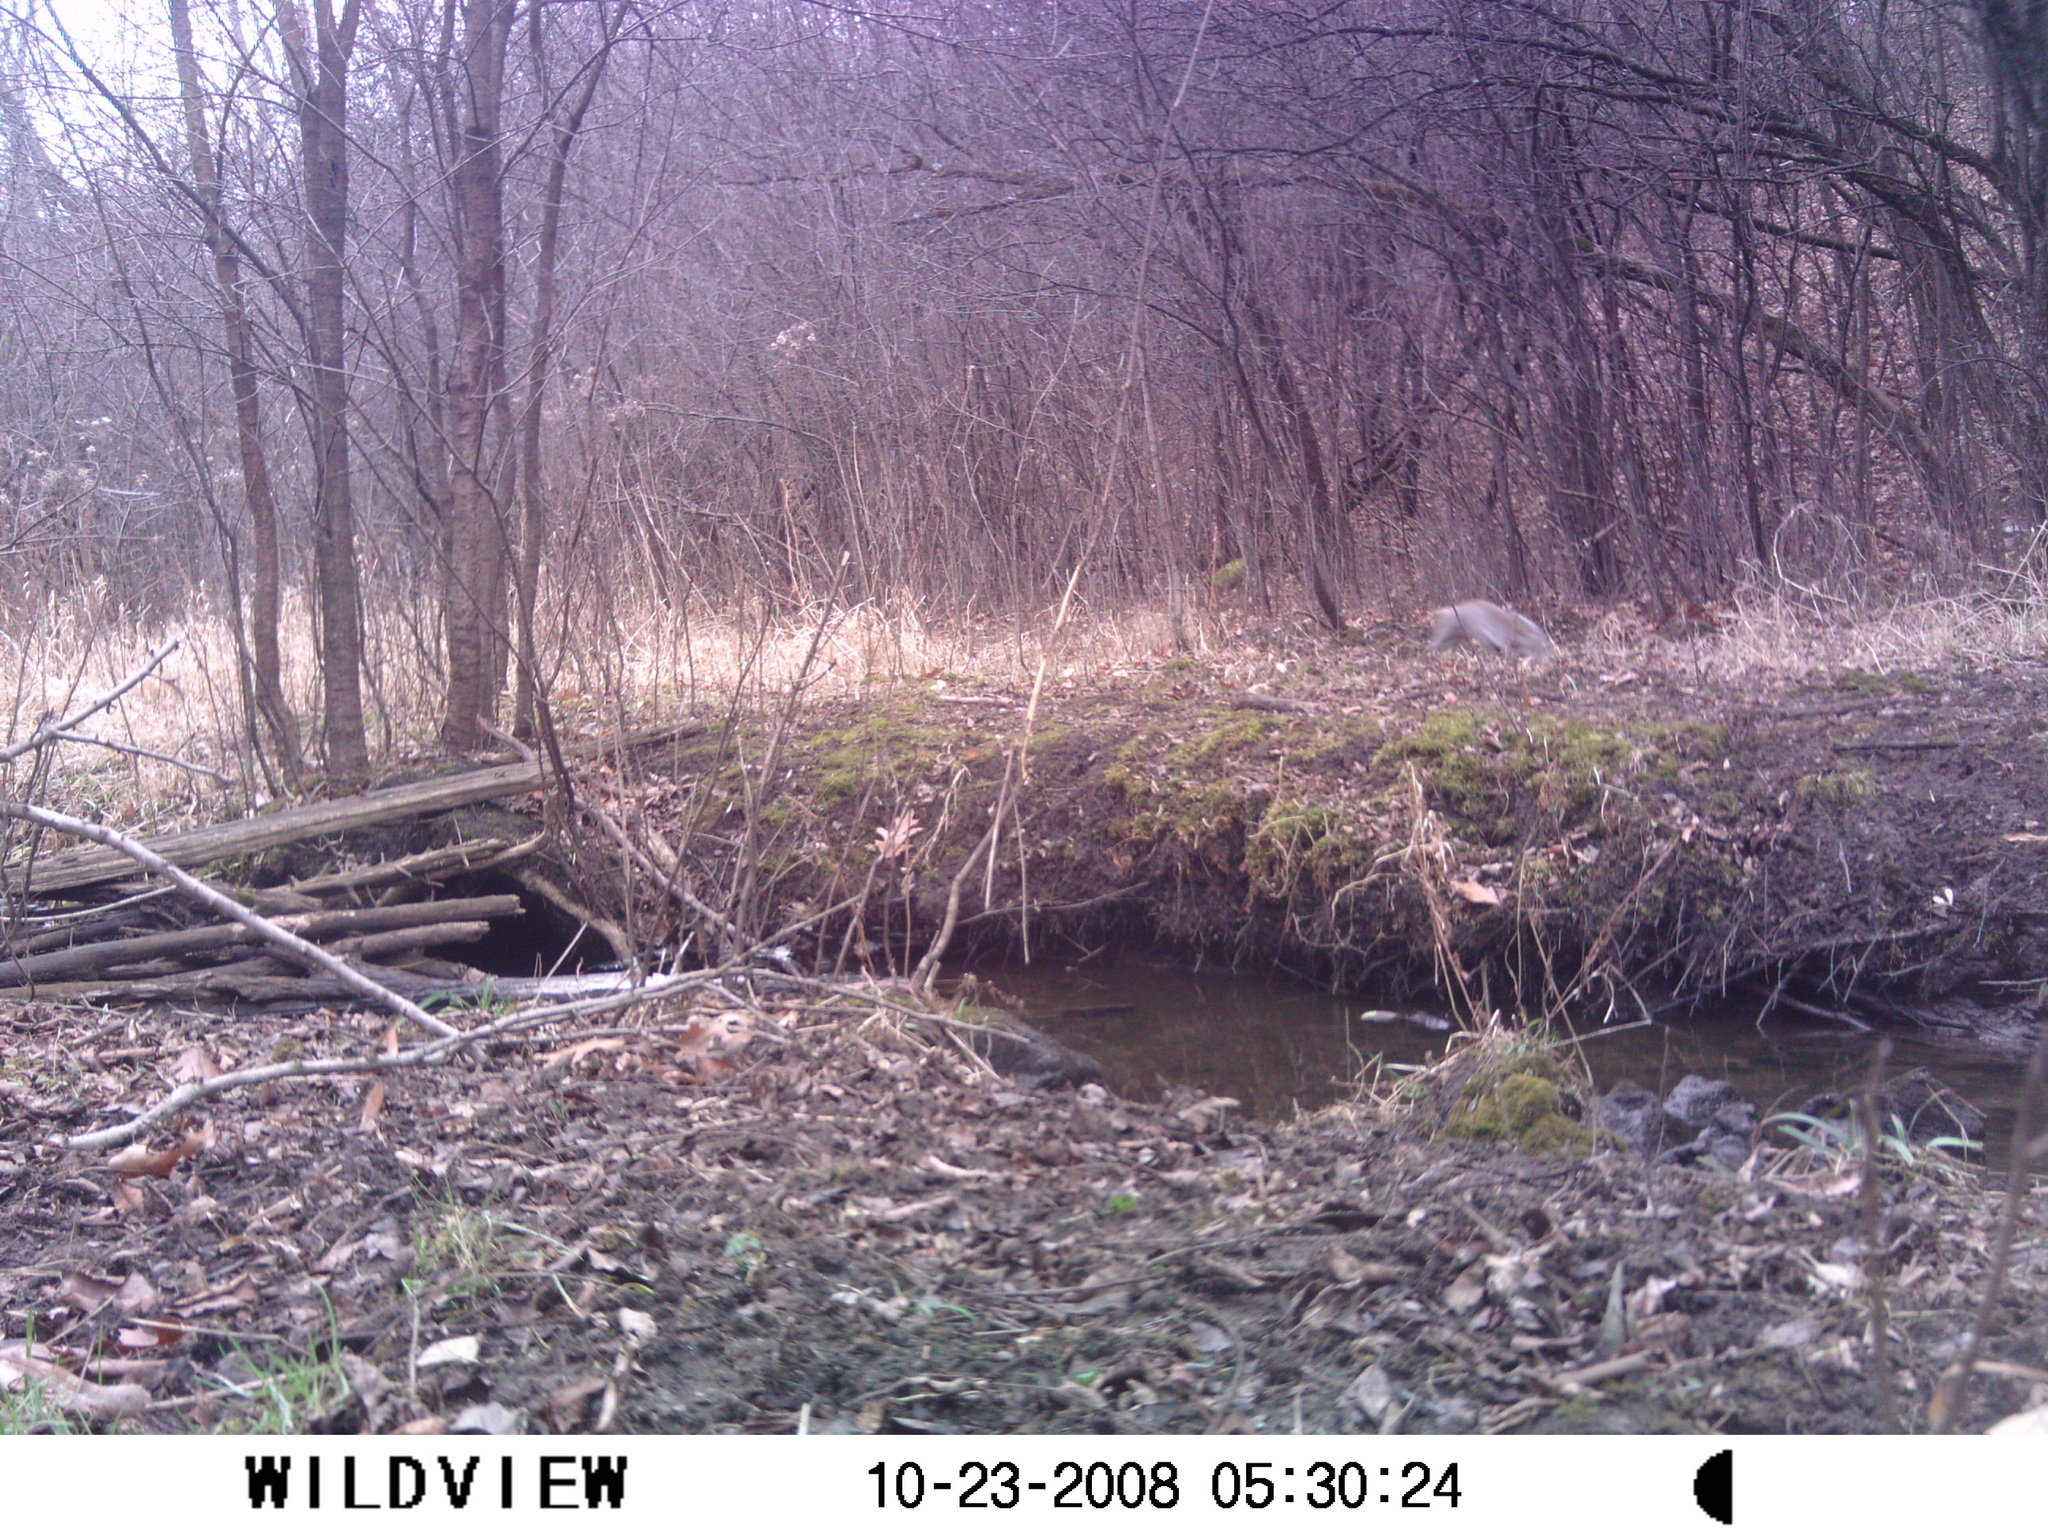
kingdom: Animalia
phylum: Chordata
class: Mammalia
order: Rodentia
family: Sciuridae
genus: Sciurus
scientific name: Sciurus carolinensis
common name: Eastern gray squirrel
